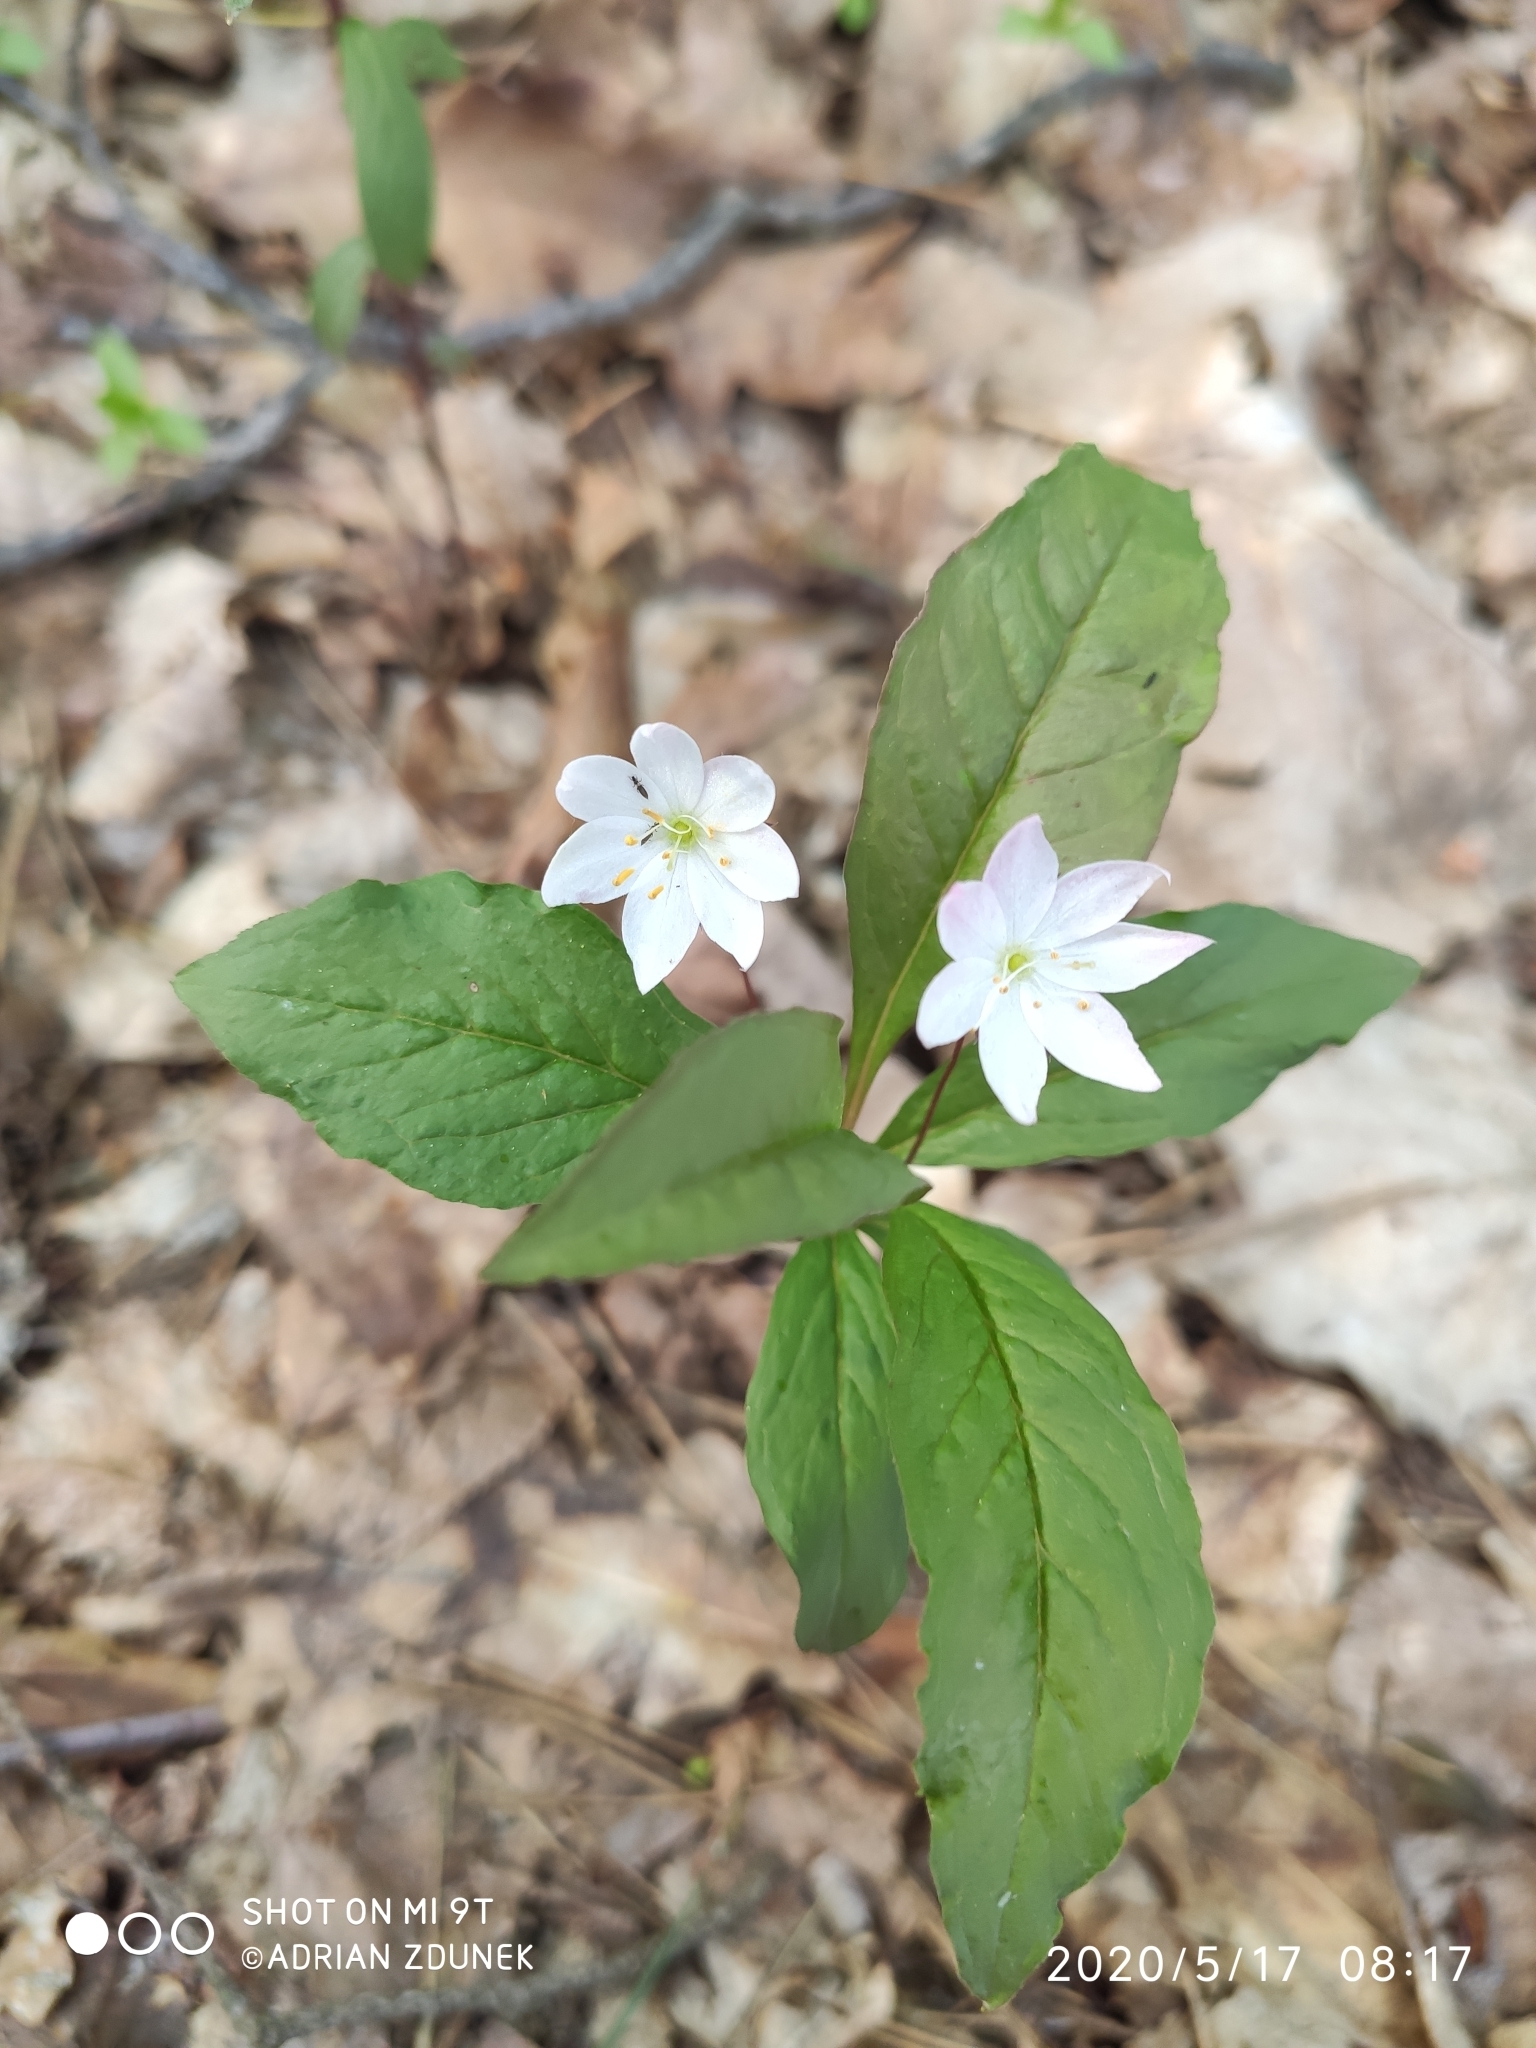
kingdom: Plantae
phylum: Tracheophyta
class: Magnoliopsida
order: Ericales
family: Primulaceae
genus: Lysimachia
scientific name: Lysimachia europaea
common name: Arctic starflower
